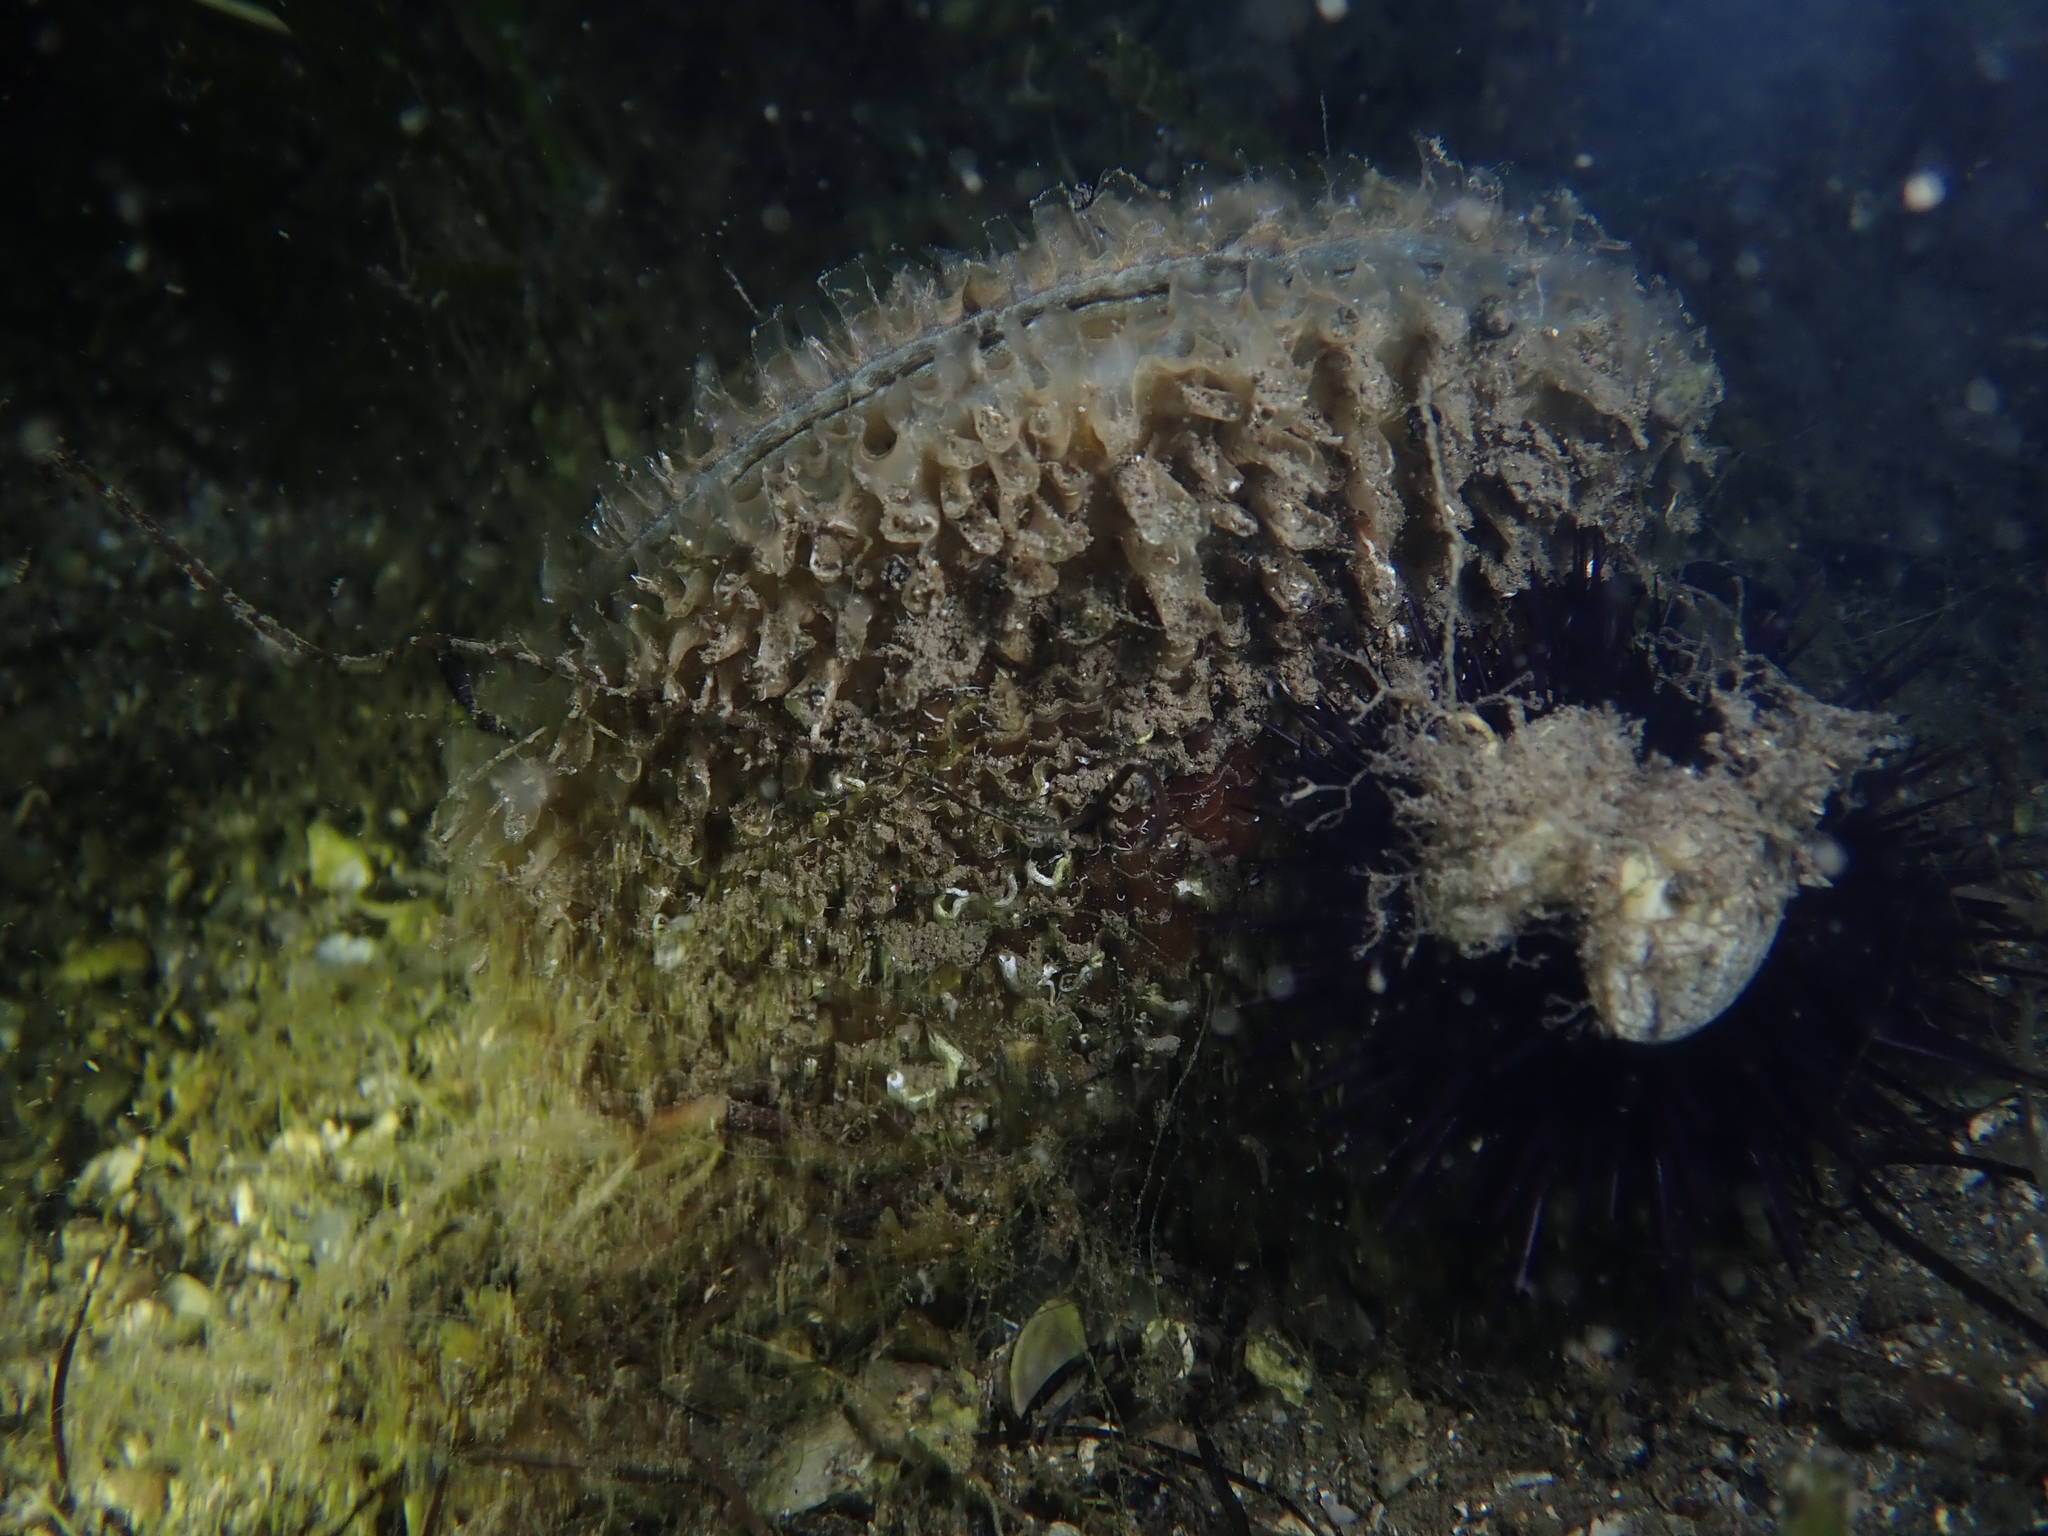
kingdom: Animalia
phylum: Mollusca
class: Bivalvia
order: Ostreida
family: Pinnidae
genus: Pinna
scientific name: Pinna nobilis
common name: Fan mussel
